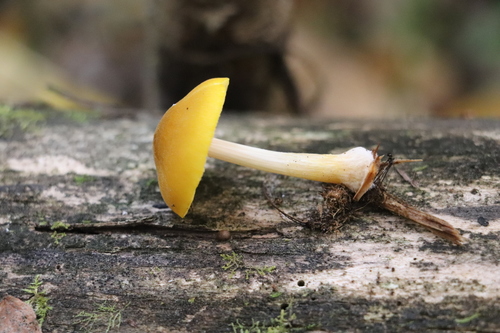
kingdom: Fungi
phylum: Basidiomycota
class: Agaricomycetes
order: Agaricales
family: Pluteaceae
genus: Pluteus
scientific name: Pluteus chrysophaeus
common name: Yellow shield
